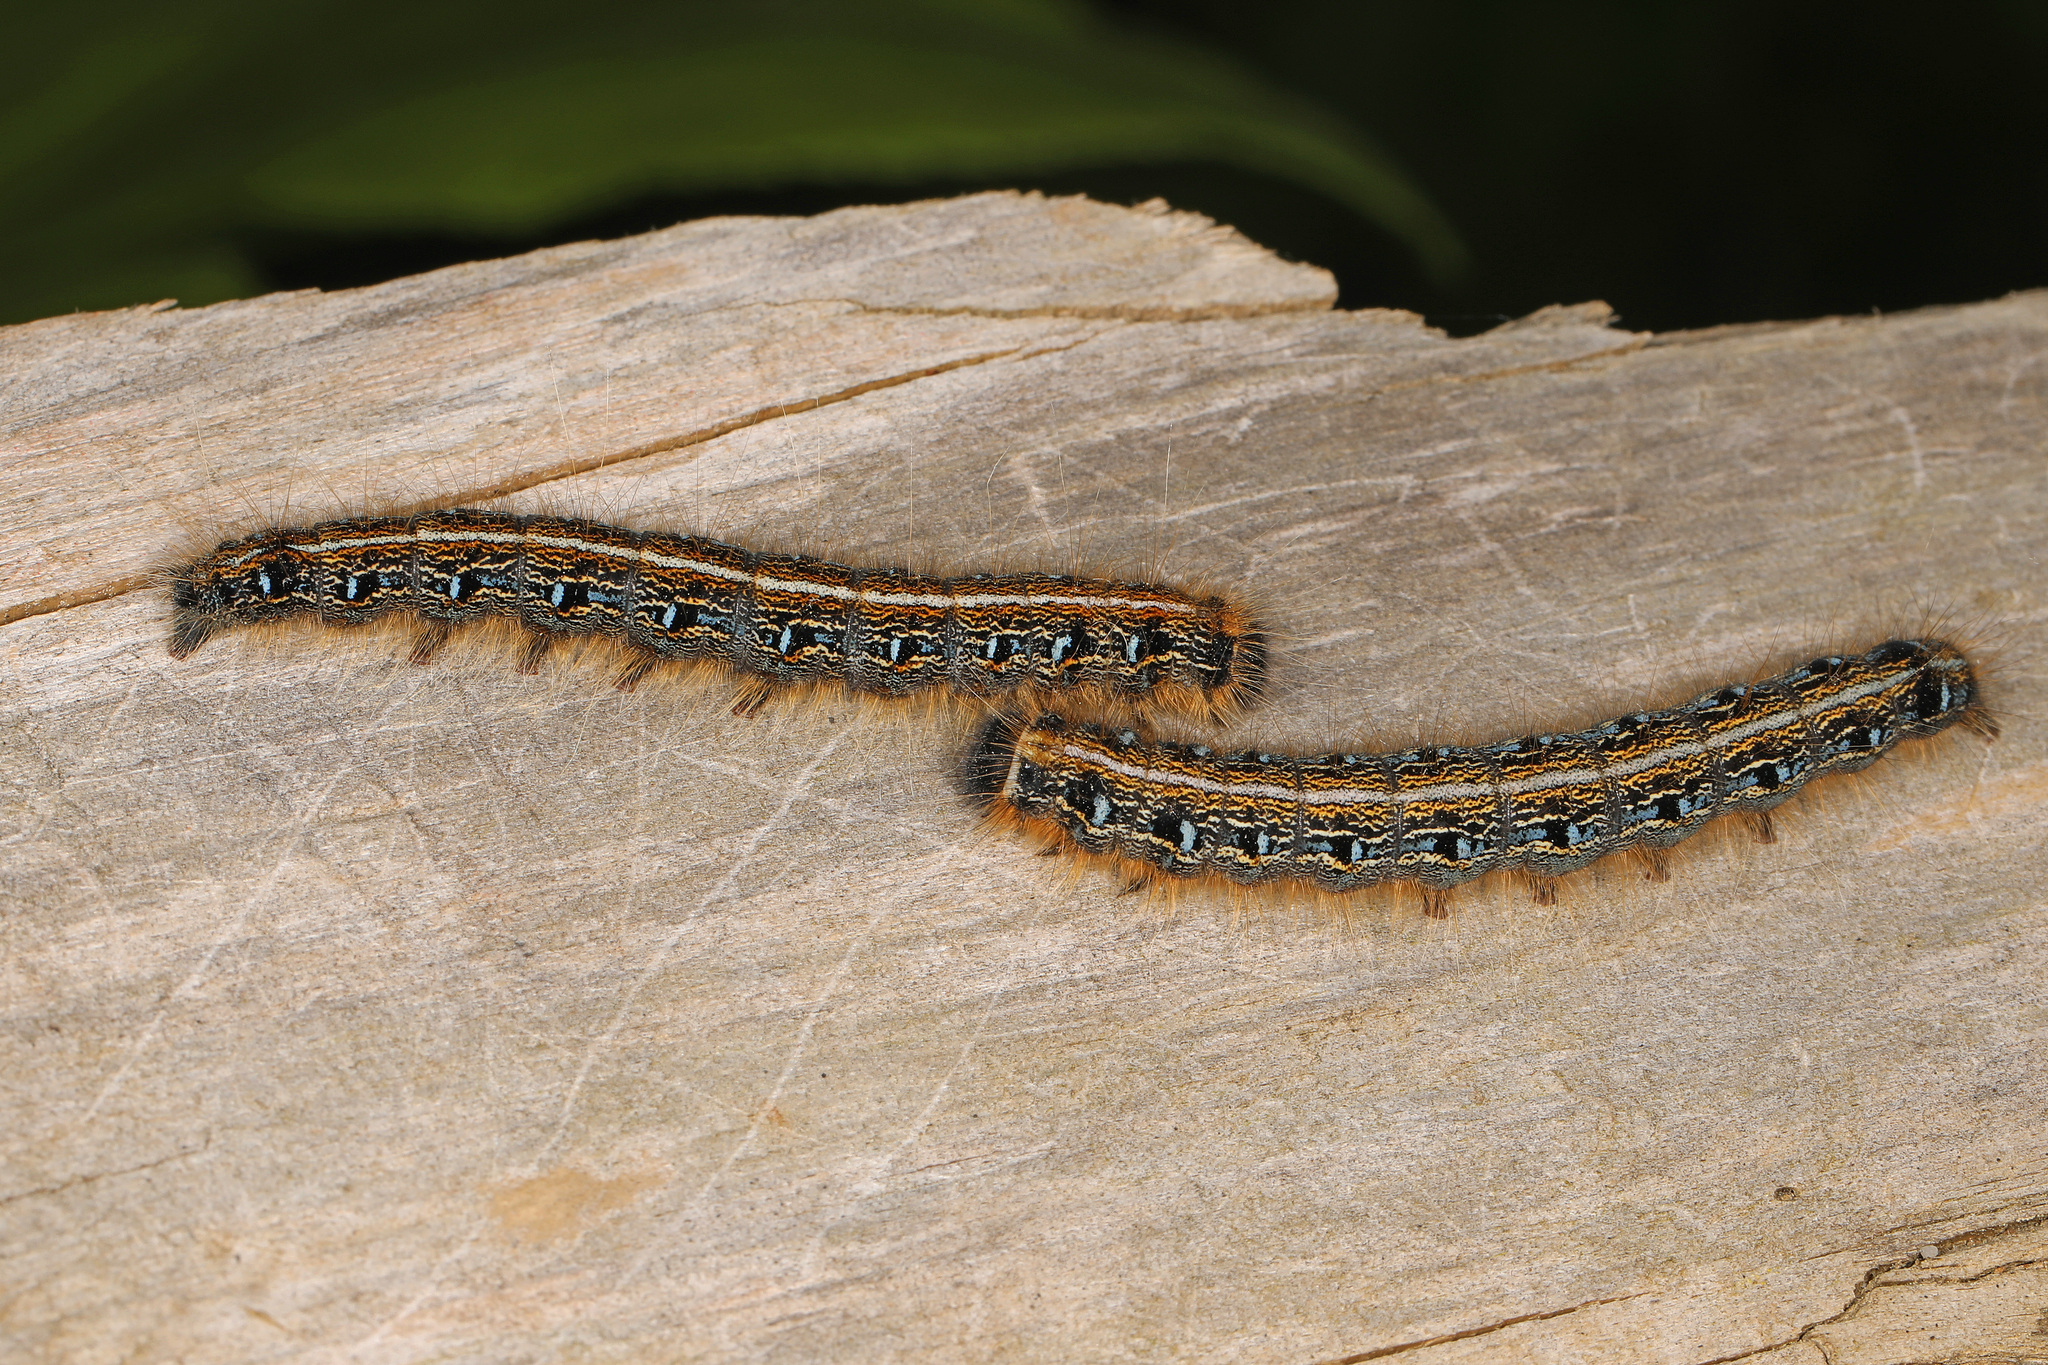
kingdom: Animalia
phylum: Arthropoda
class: Insecta
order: Lepidoptera
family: Lasiocampidae
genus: Malacosoma
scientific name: Malacosoma americana
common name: Eastern tent caterpillar moth
